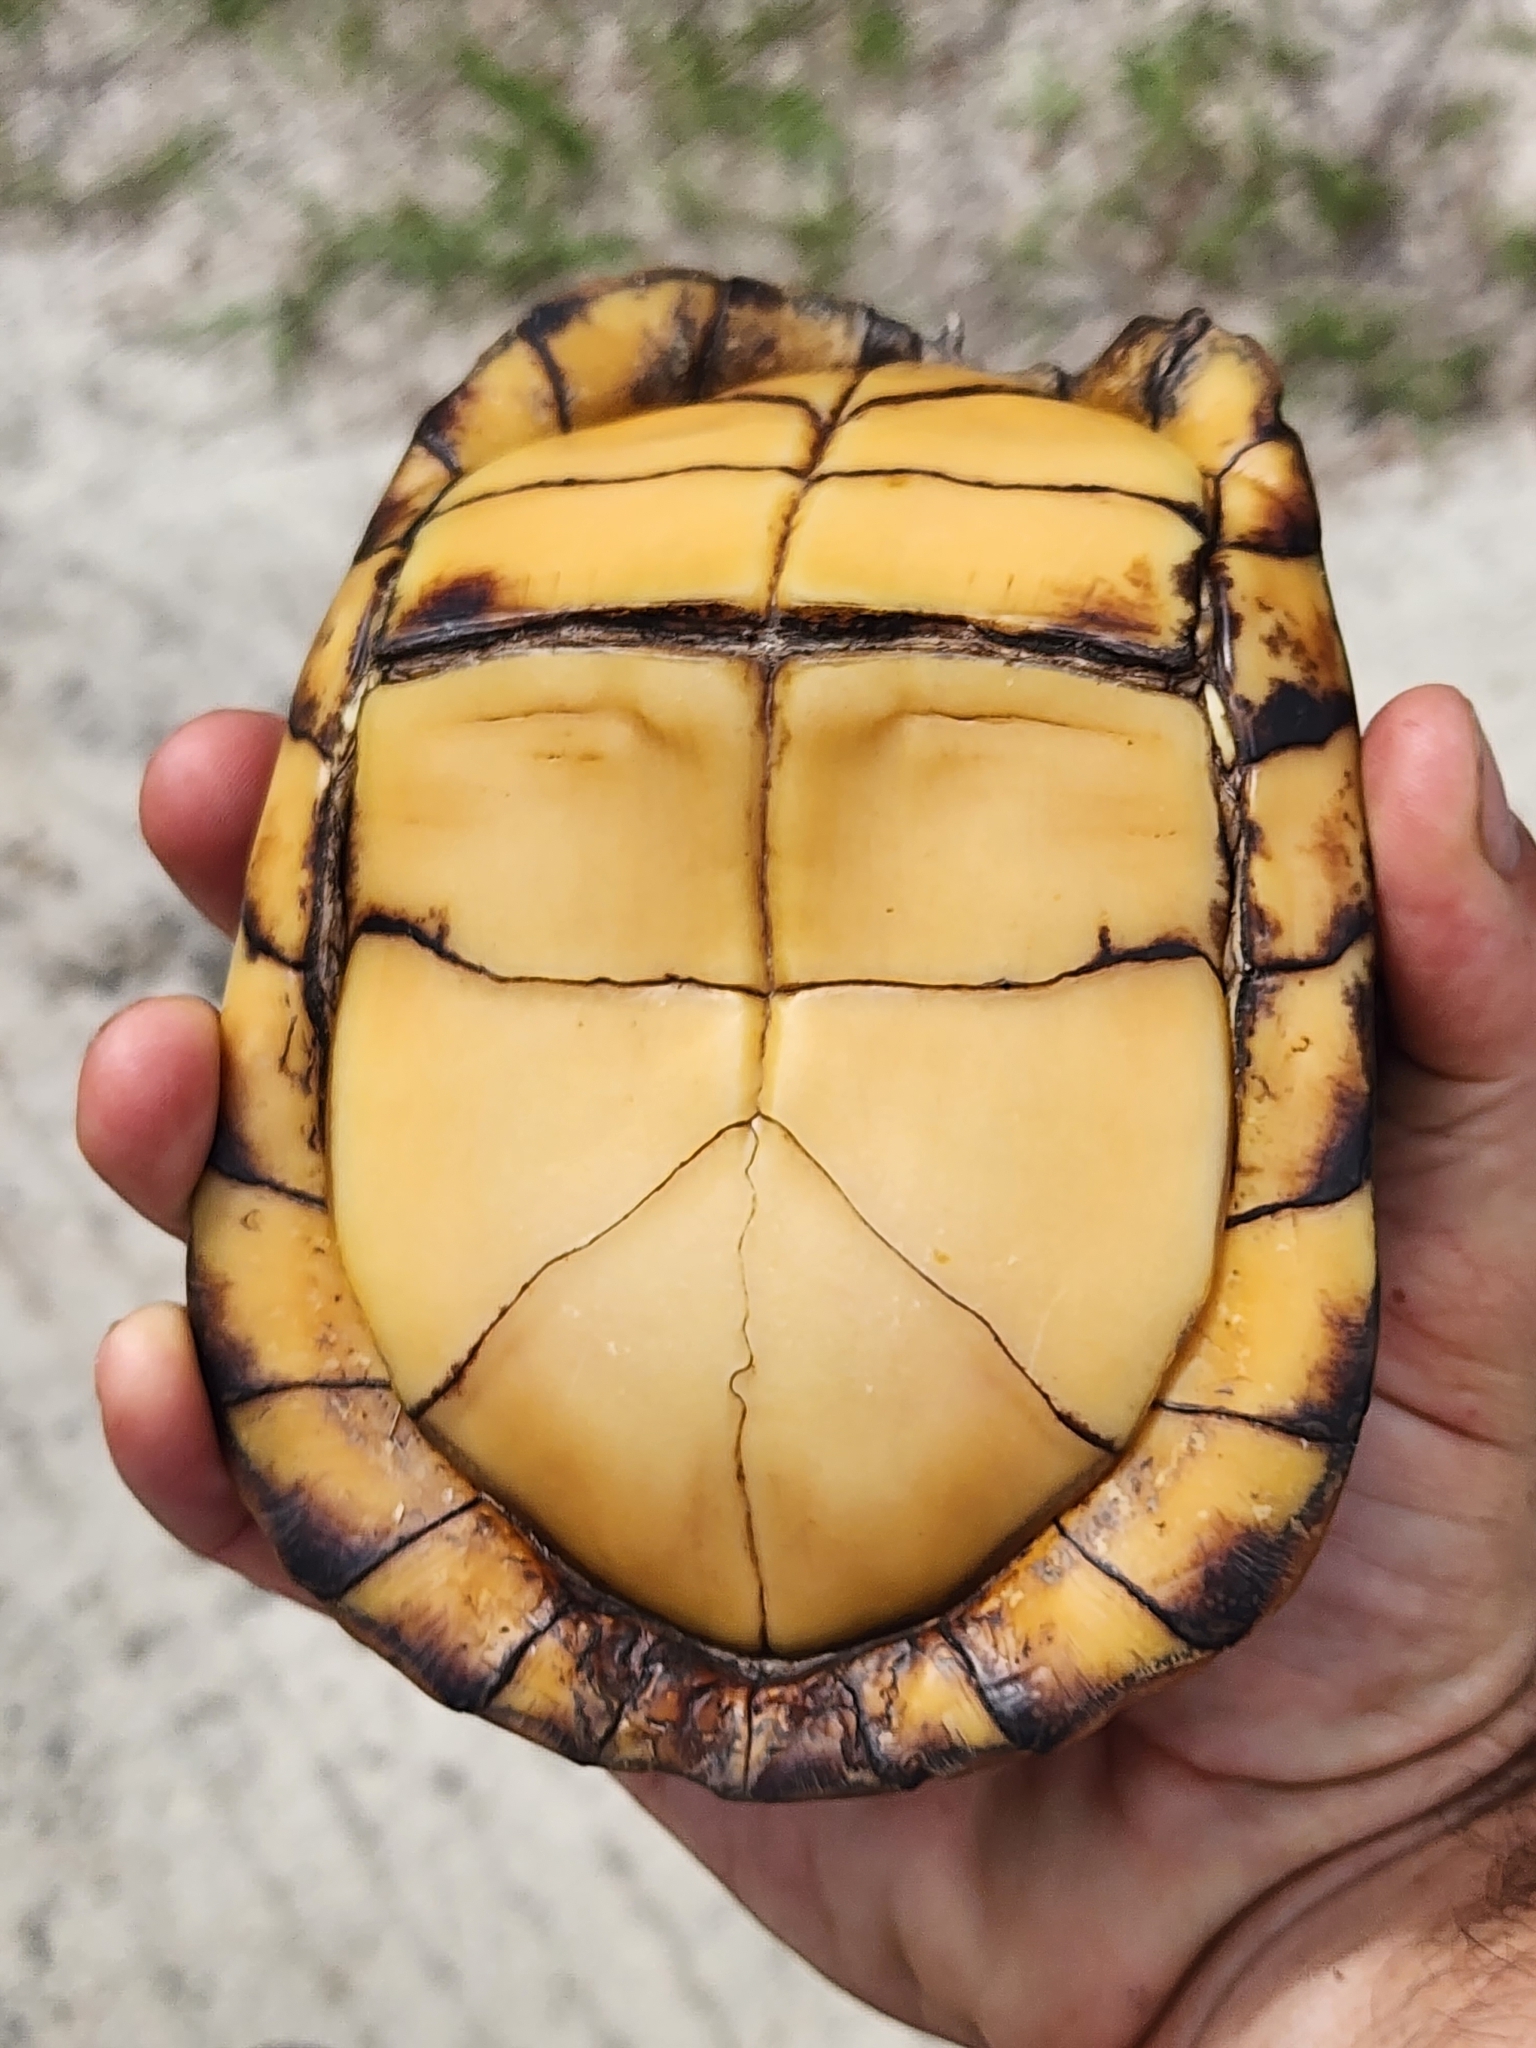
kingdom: Animalia
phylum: Chordata
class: Testudines
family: Emydidae
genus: Terrapene
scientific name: Terrapene carolina
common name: Common box turtle
